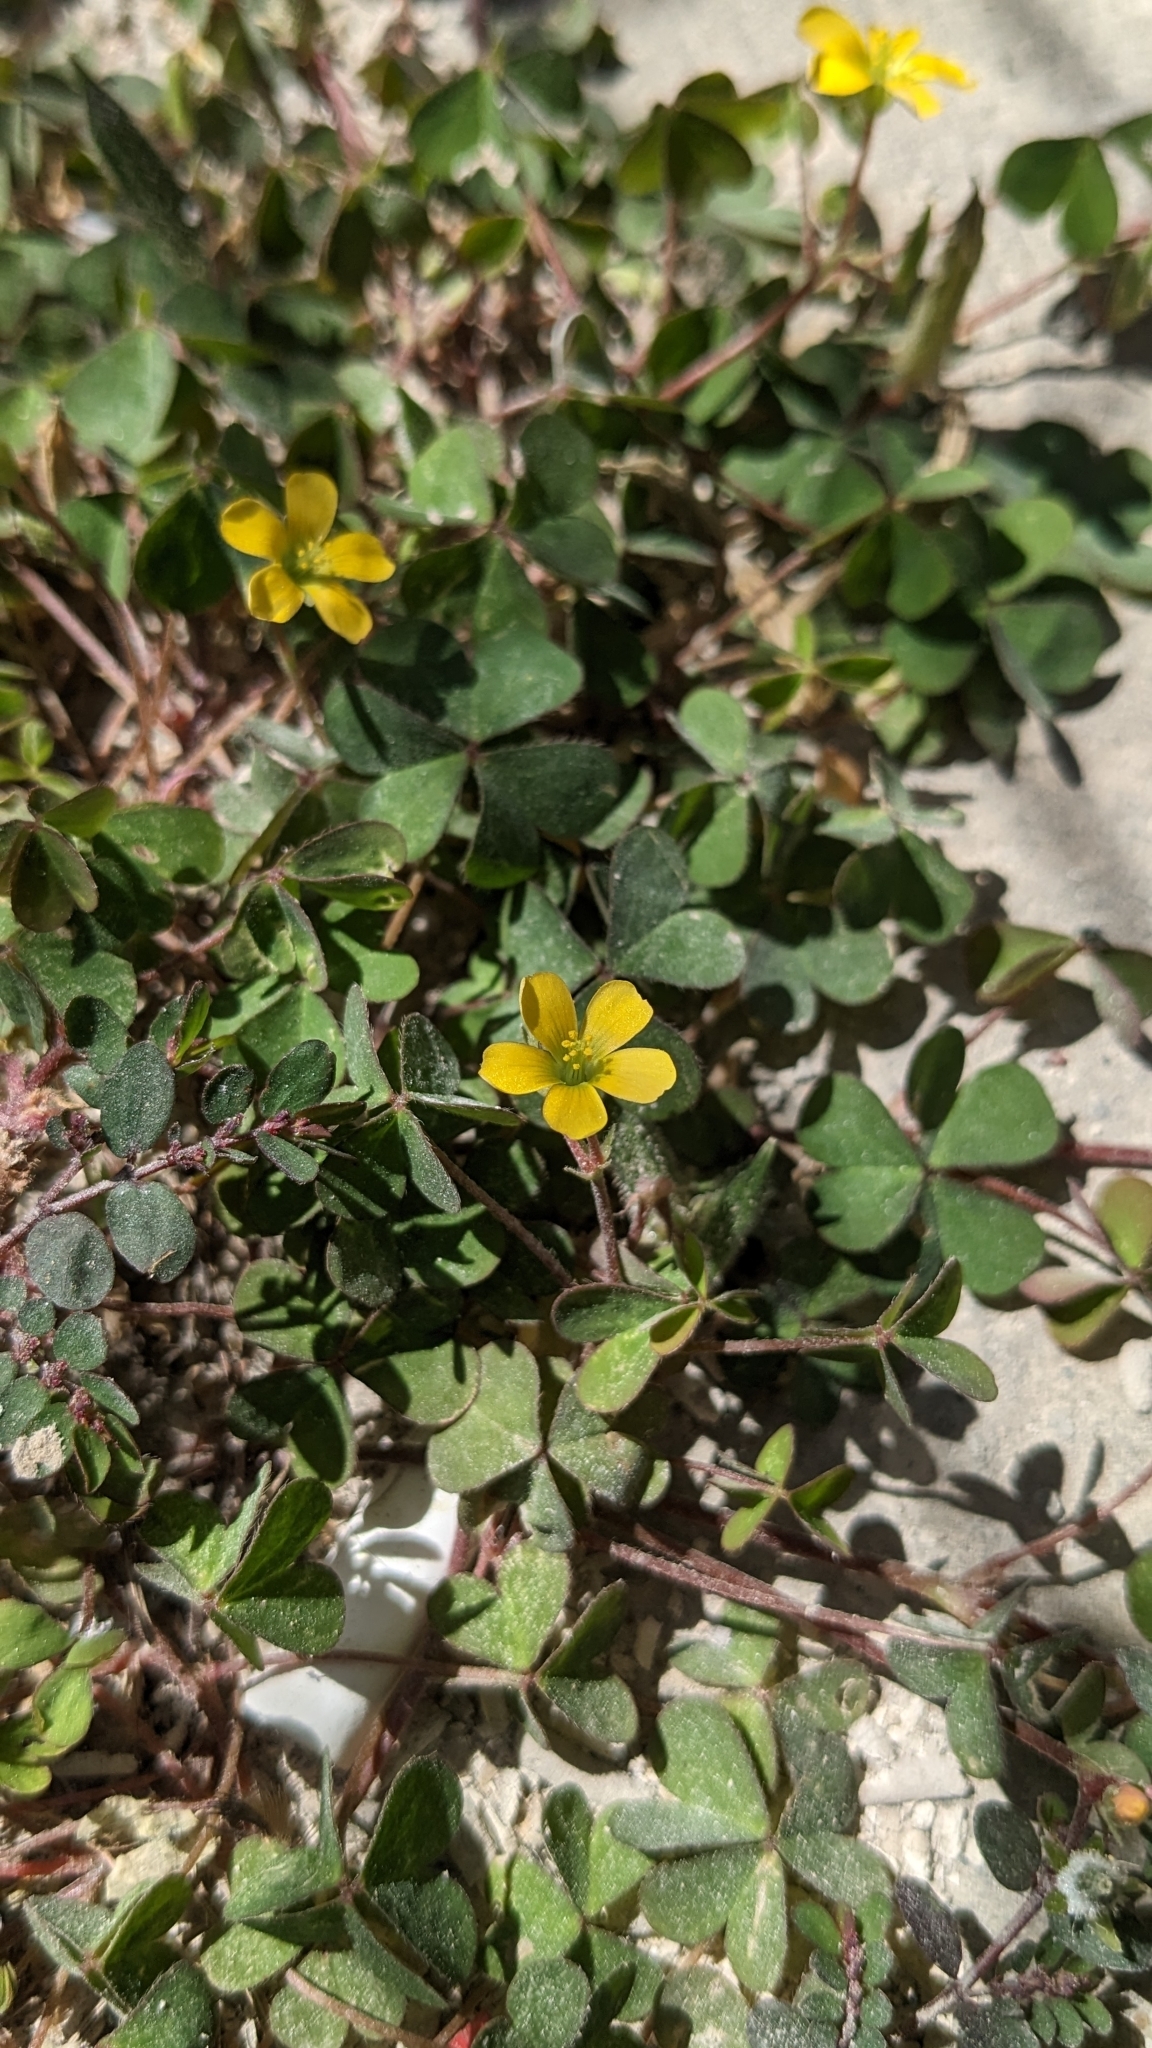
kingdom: Plantae
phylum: Tracheophyta
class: Magnoliopsida
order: Oxalidales
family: Oxalidaceae
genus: Oxalis
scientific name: Oxalis corniculata
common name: Procumbent yellow-sorrel
